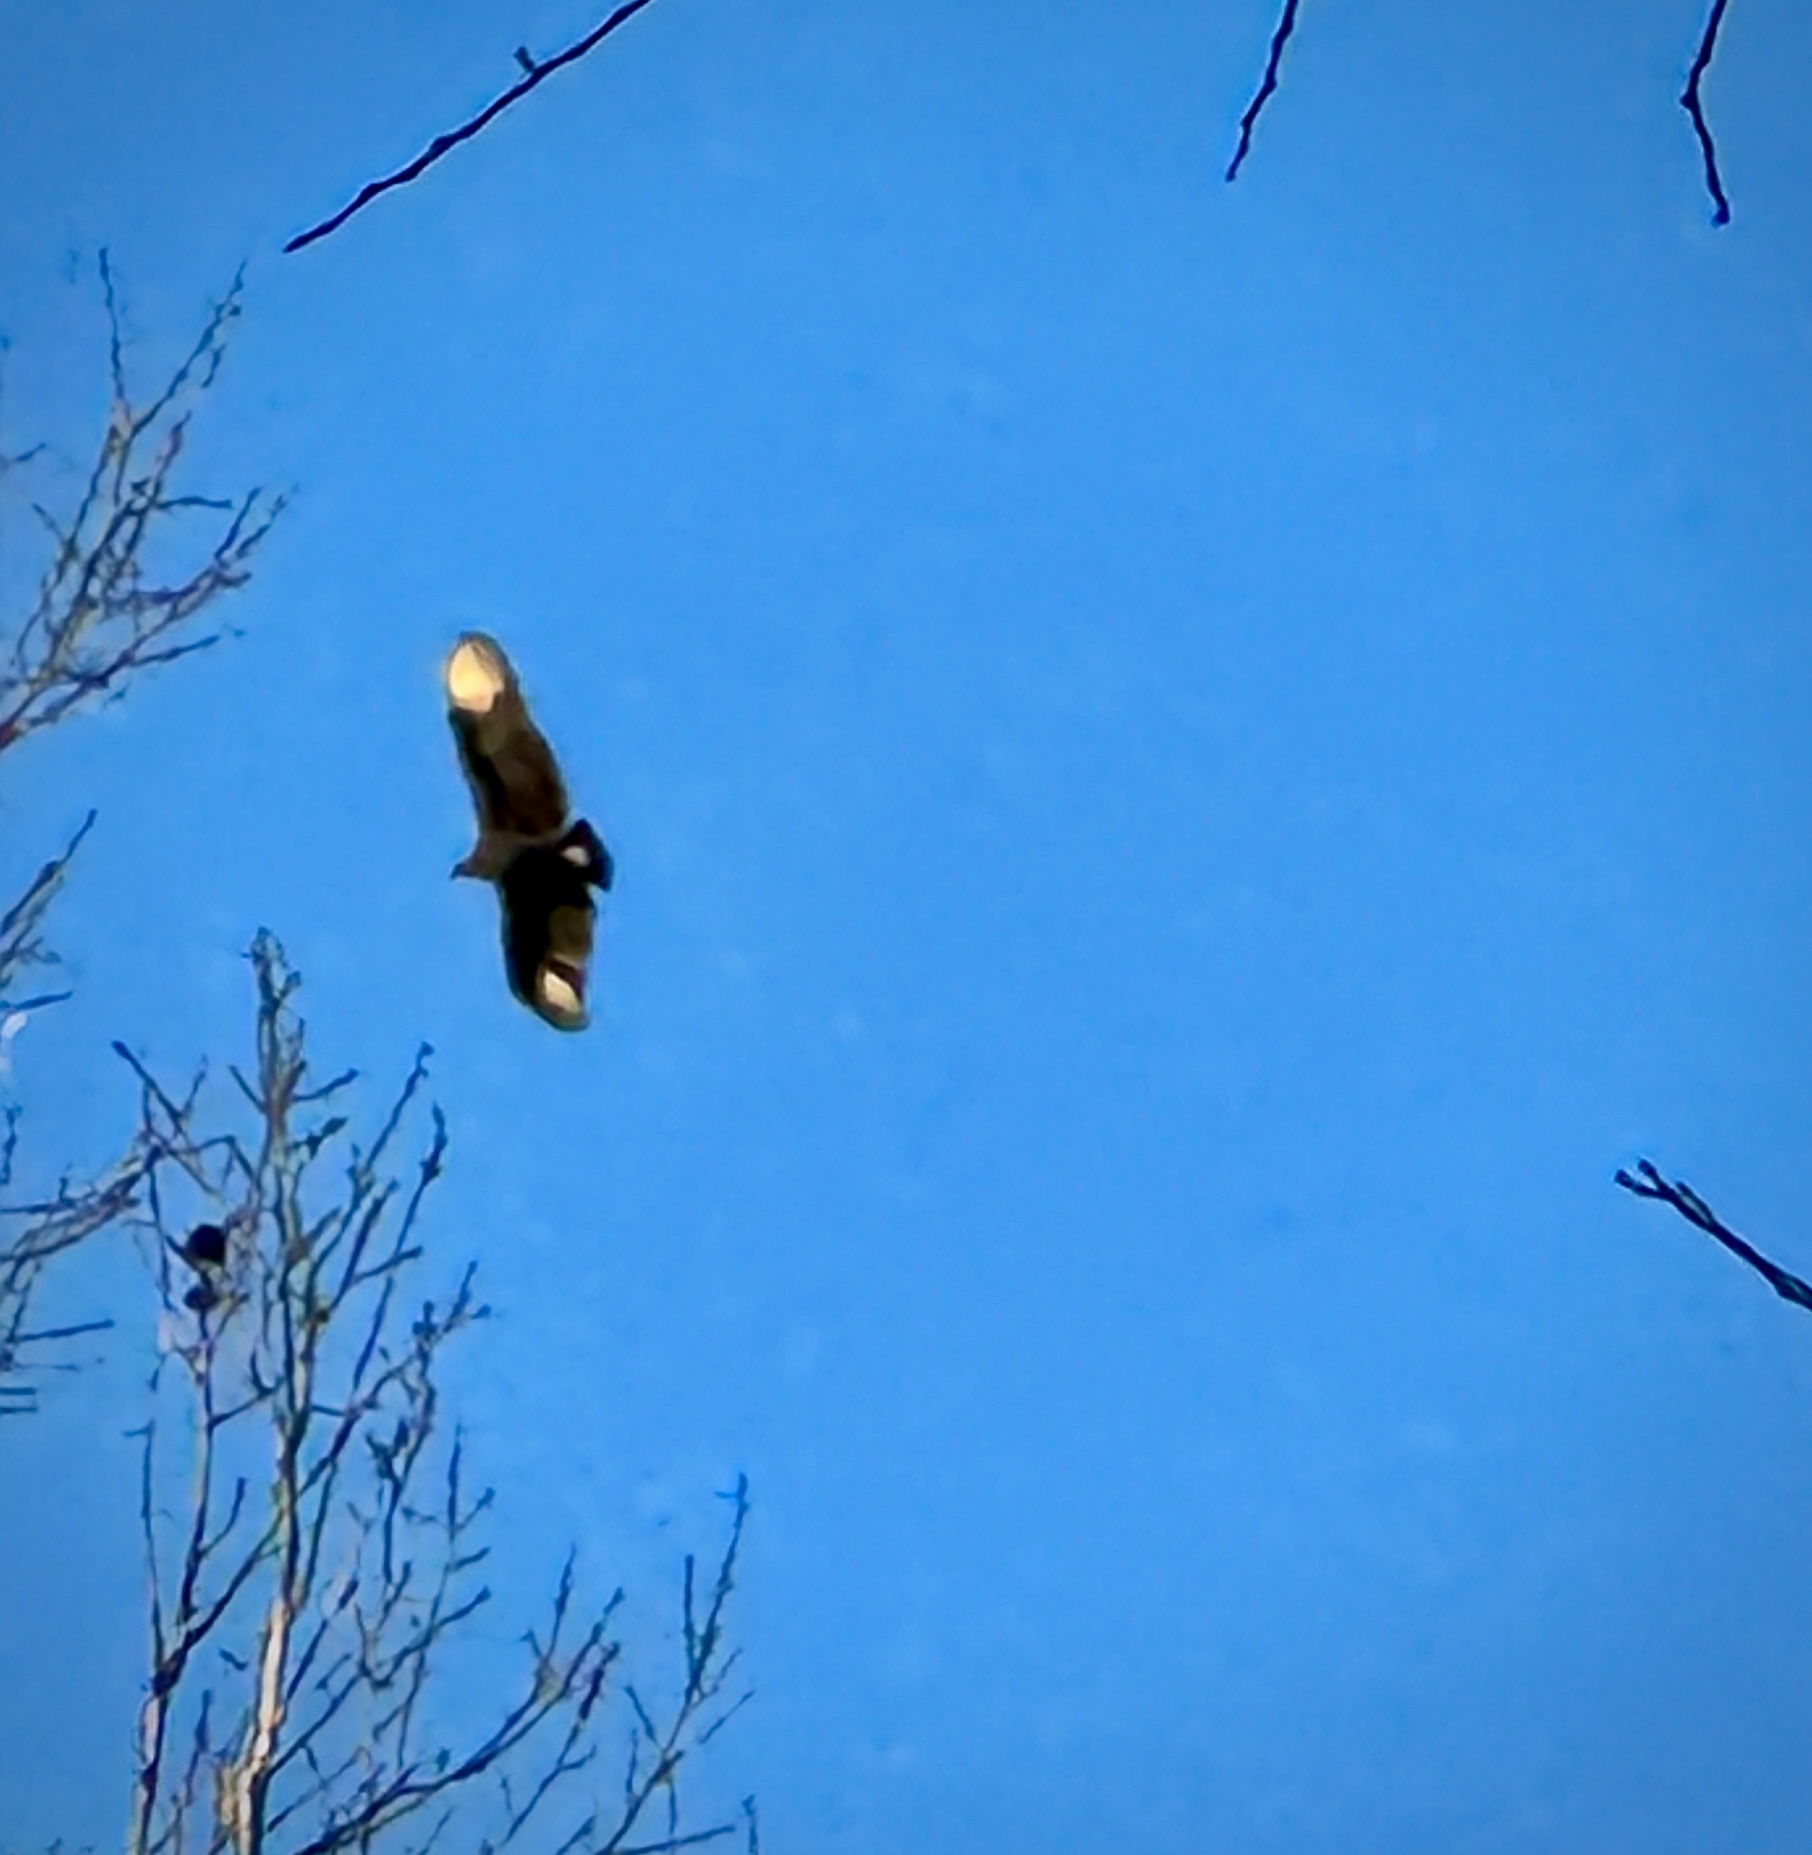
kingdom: Animalia
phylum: Chordata
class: Aves
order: Accipitriformes
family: Cathartidae
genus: Coragyps
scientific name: Coragyps atratus
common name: Black vulture
